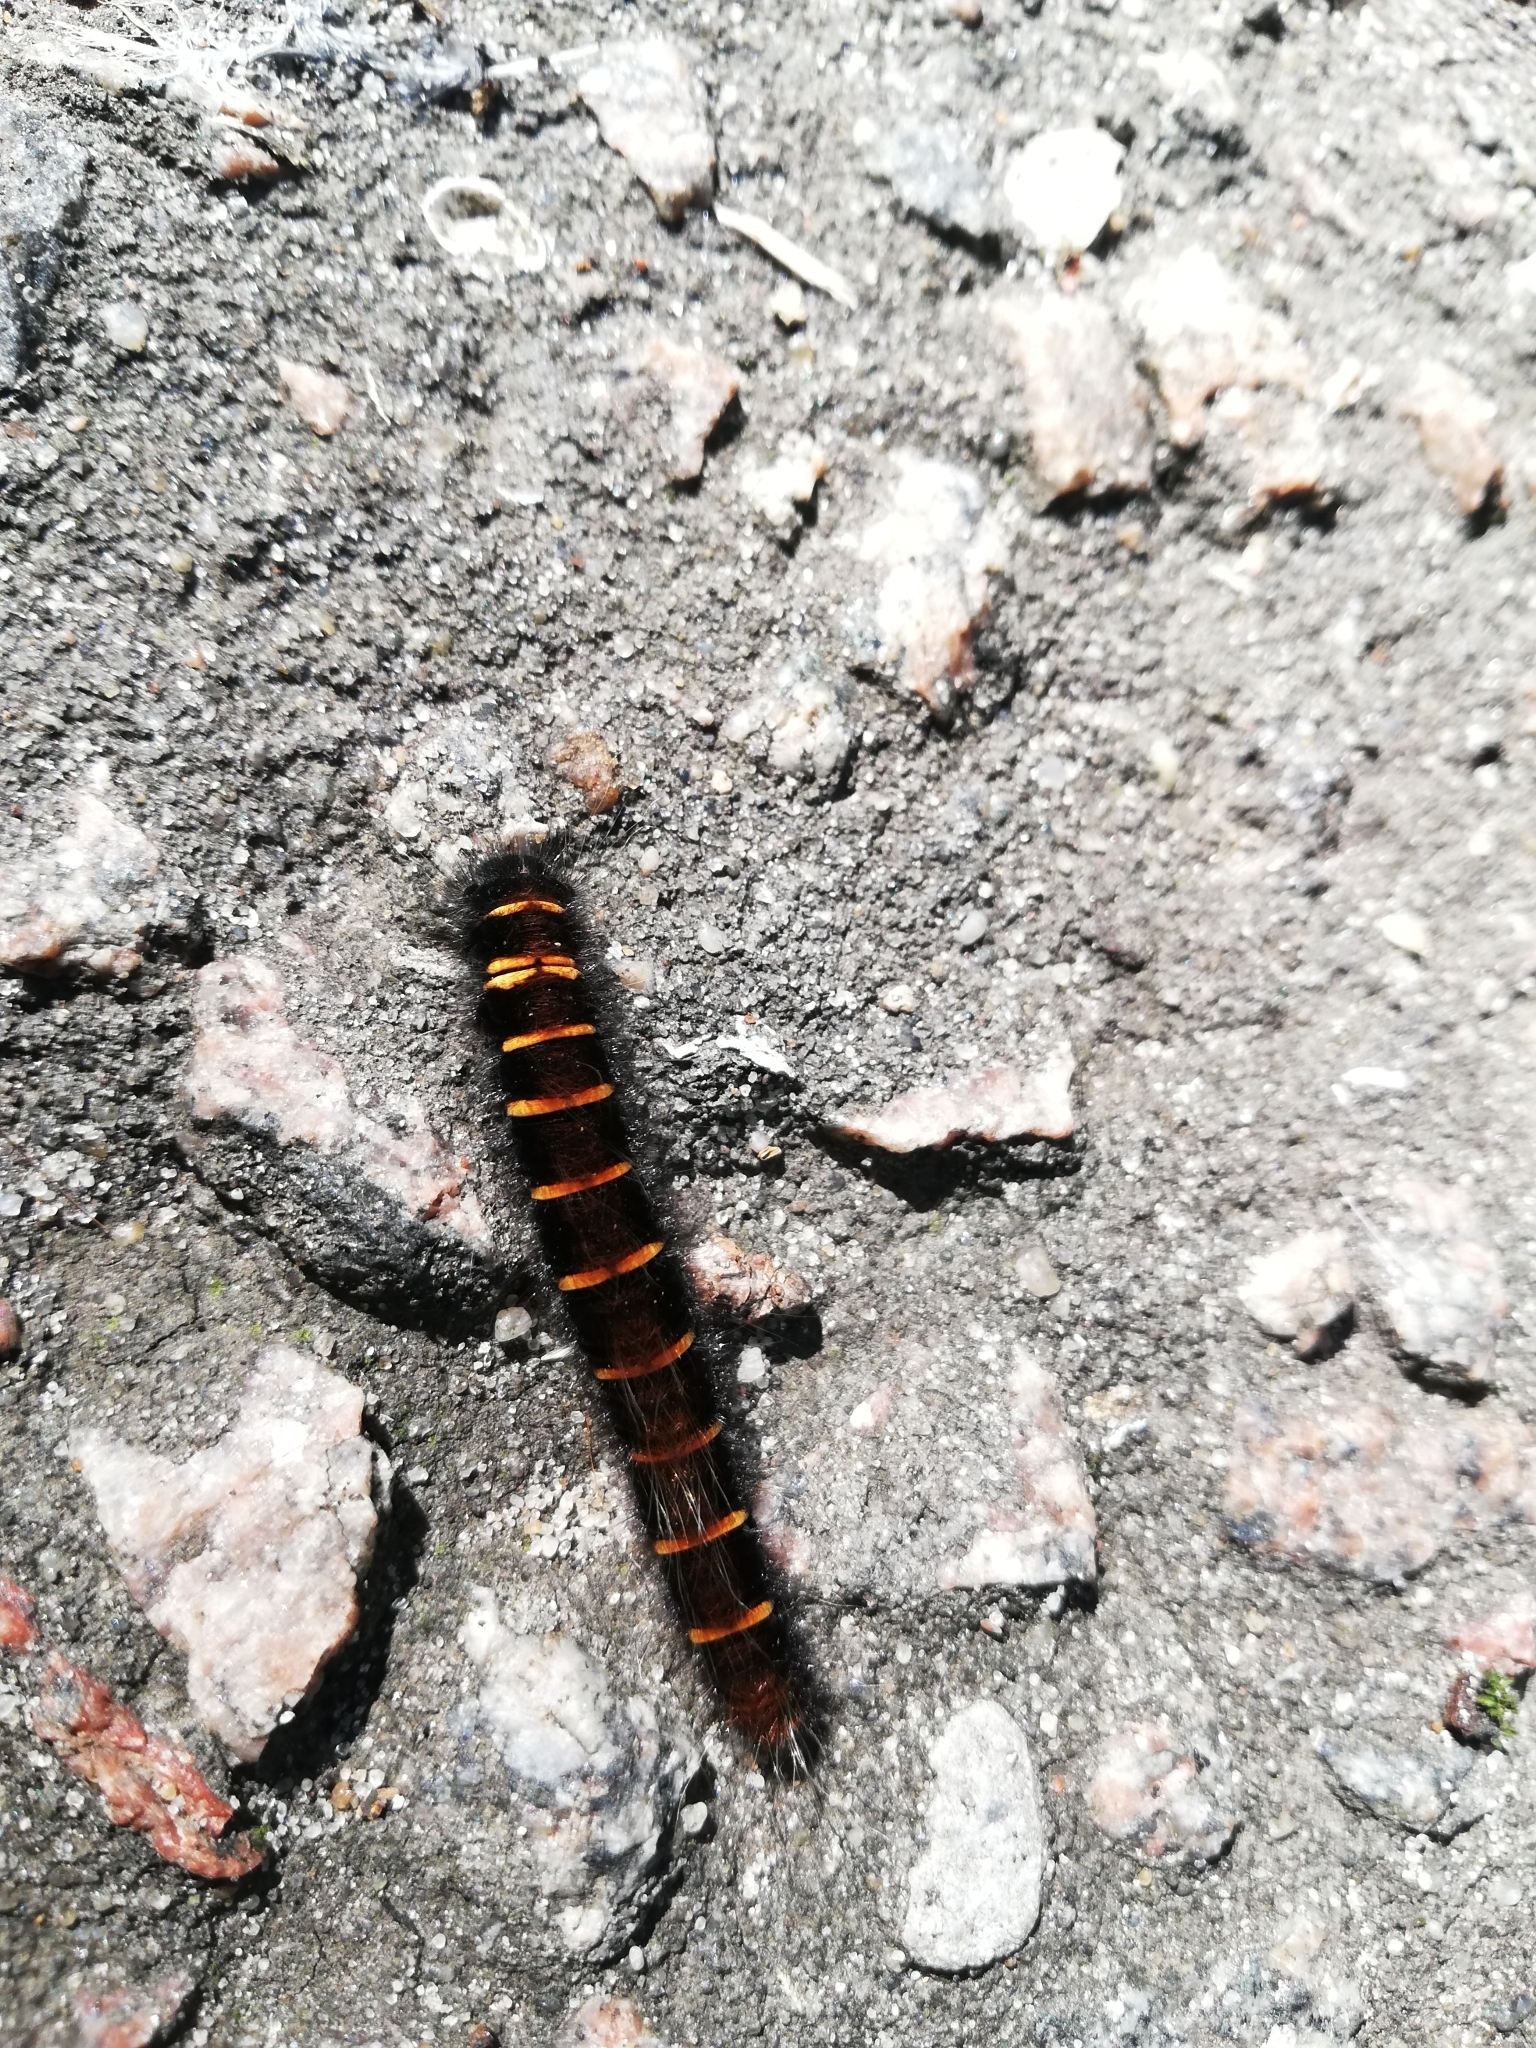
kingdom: Animalia
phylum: Arthropoda
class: Insecta
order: Lepidoptera
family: Lasiocampidae
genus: Macrothylacia
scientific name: Macrothylacia rubi
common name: Fox moth
